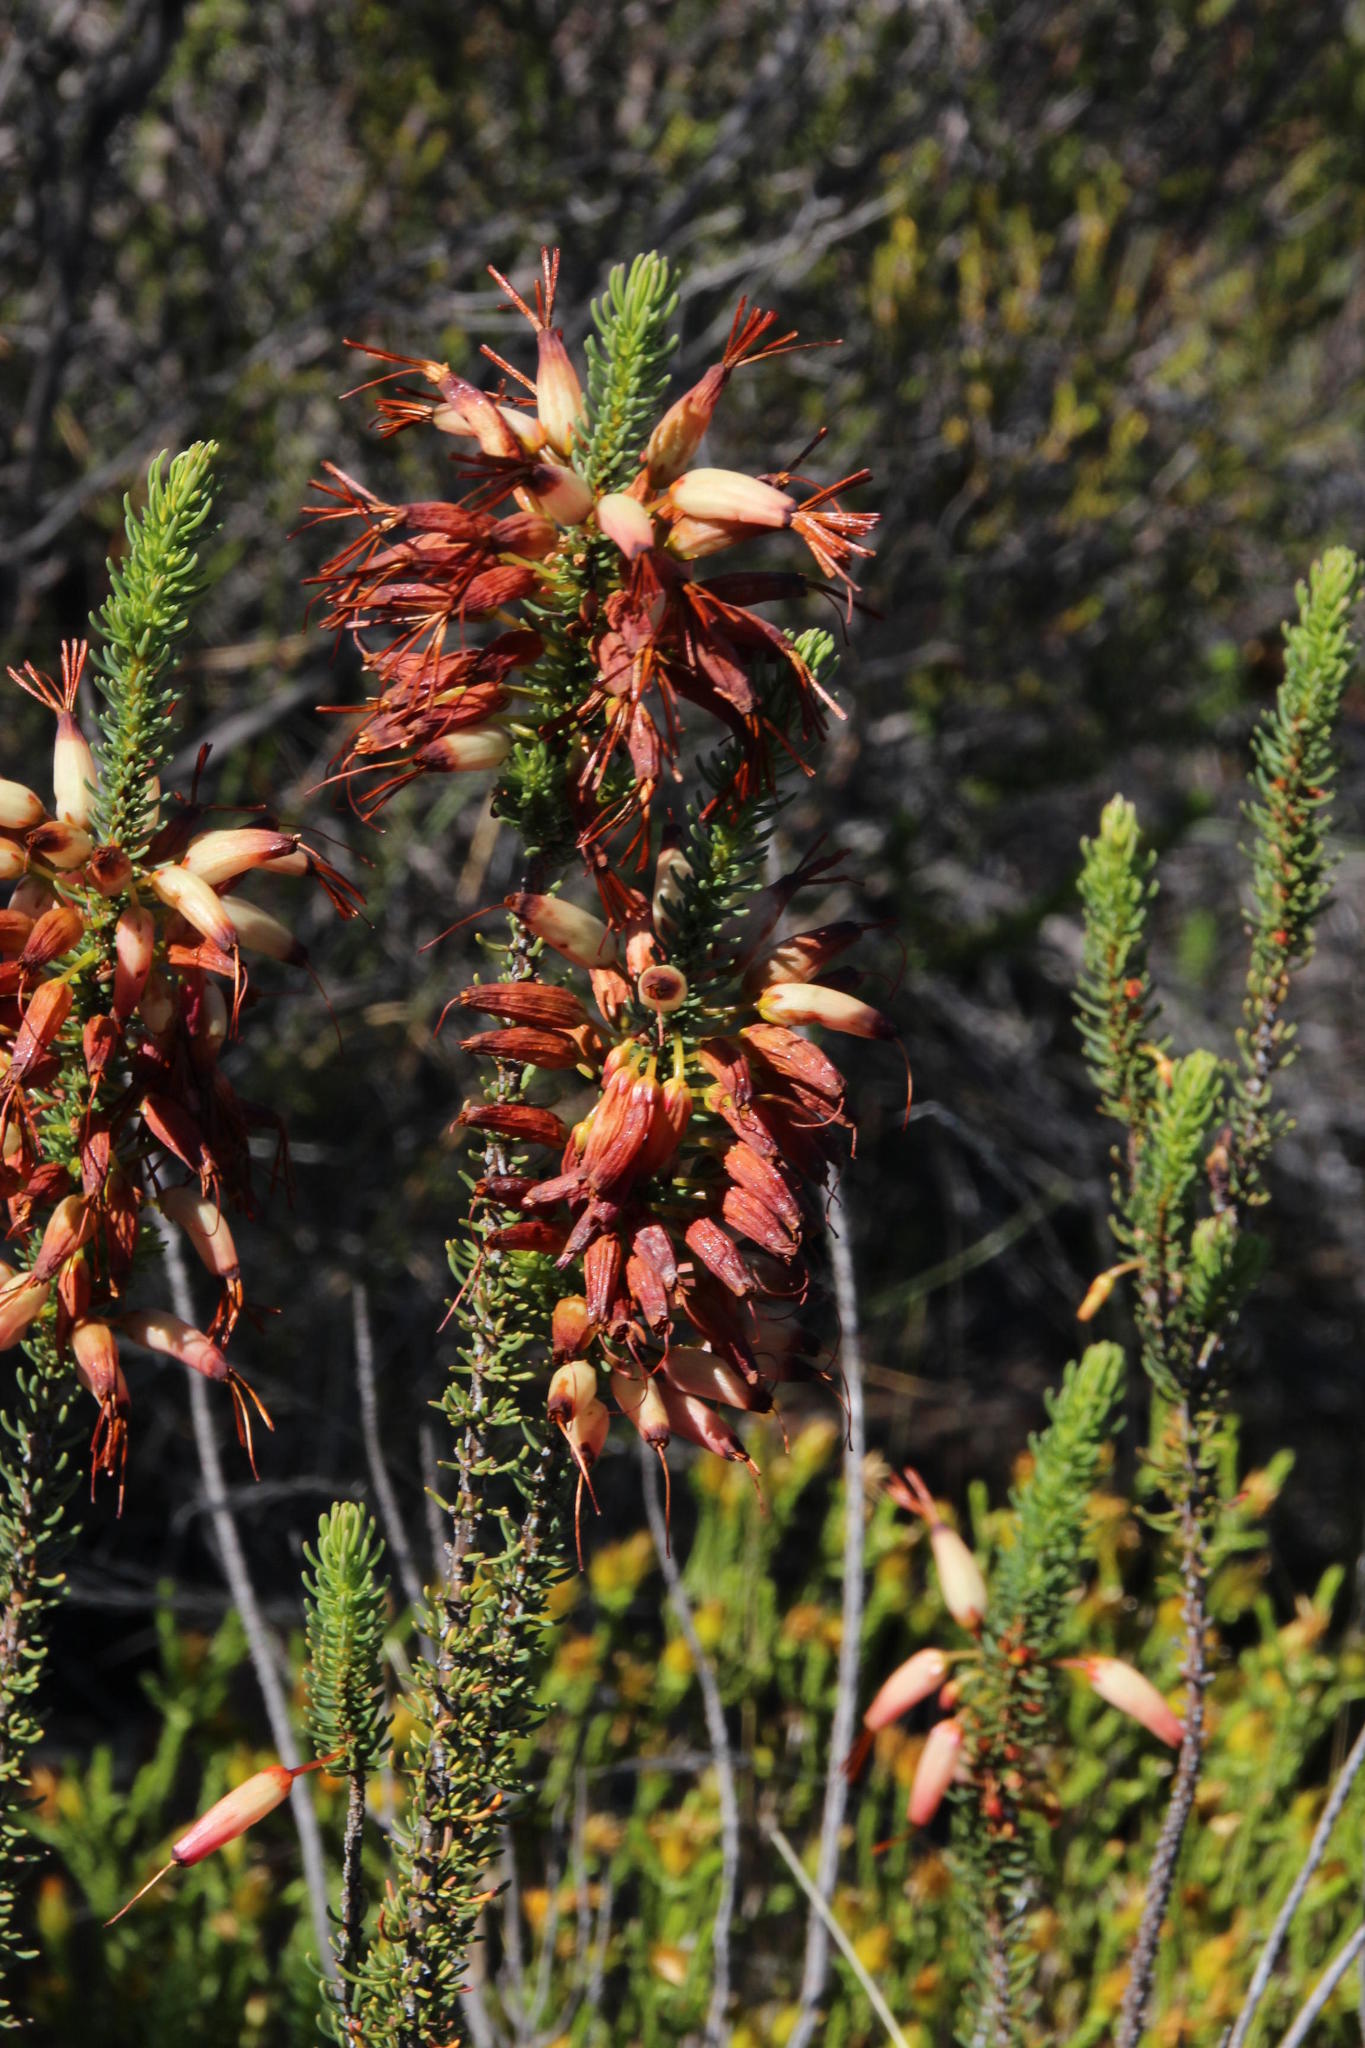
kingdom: Plantae
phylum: Tracheophyta
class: Magnoliopsida
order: Ericales
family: Ericaceae
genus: Erica
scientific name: Erica plukenetii
